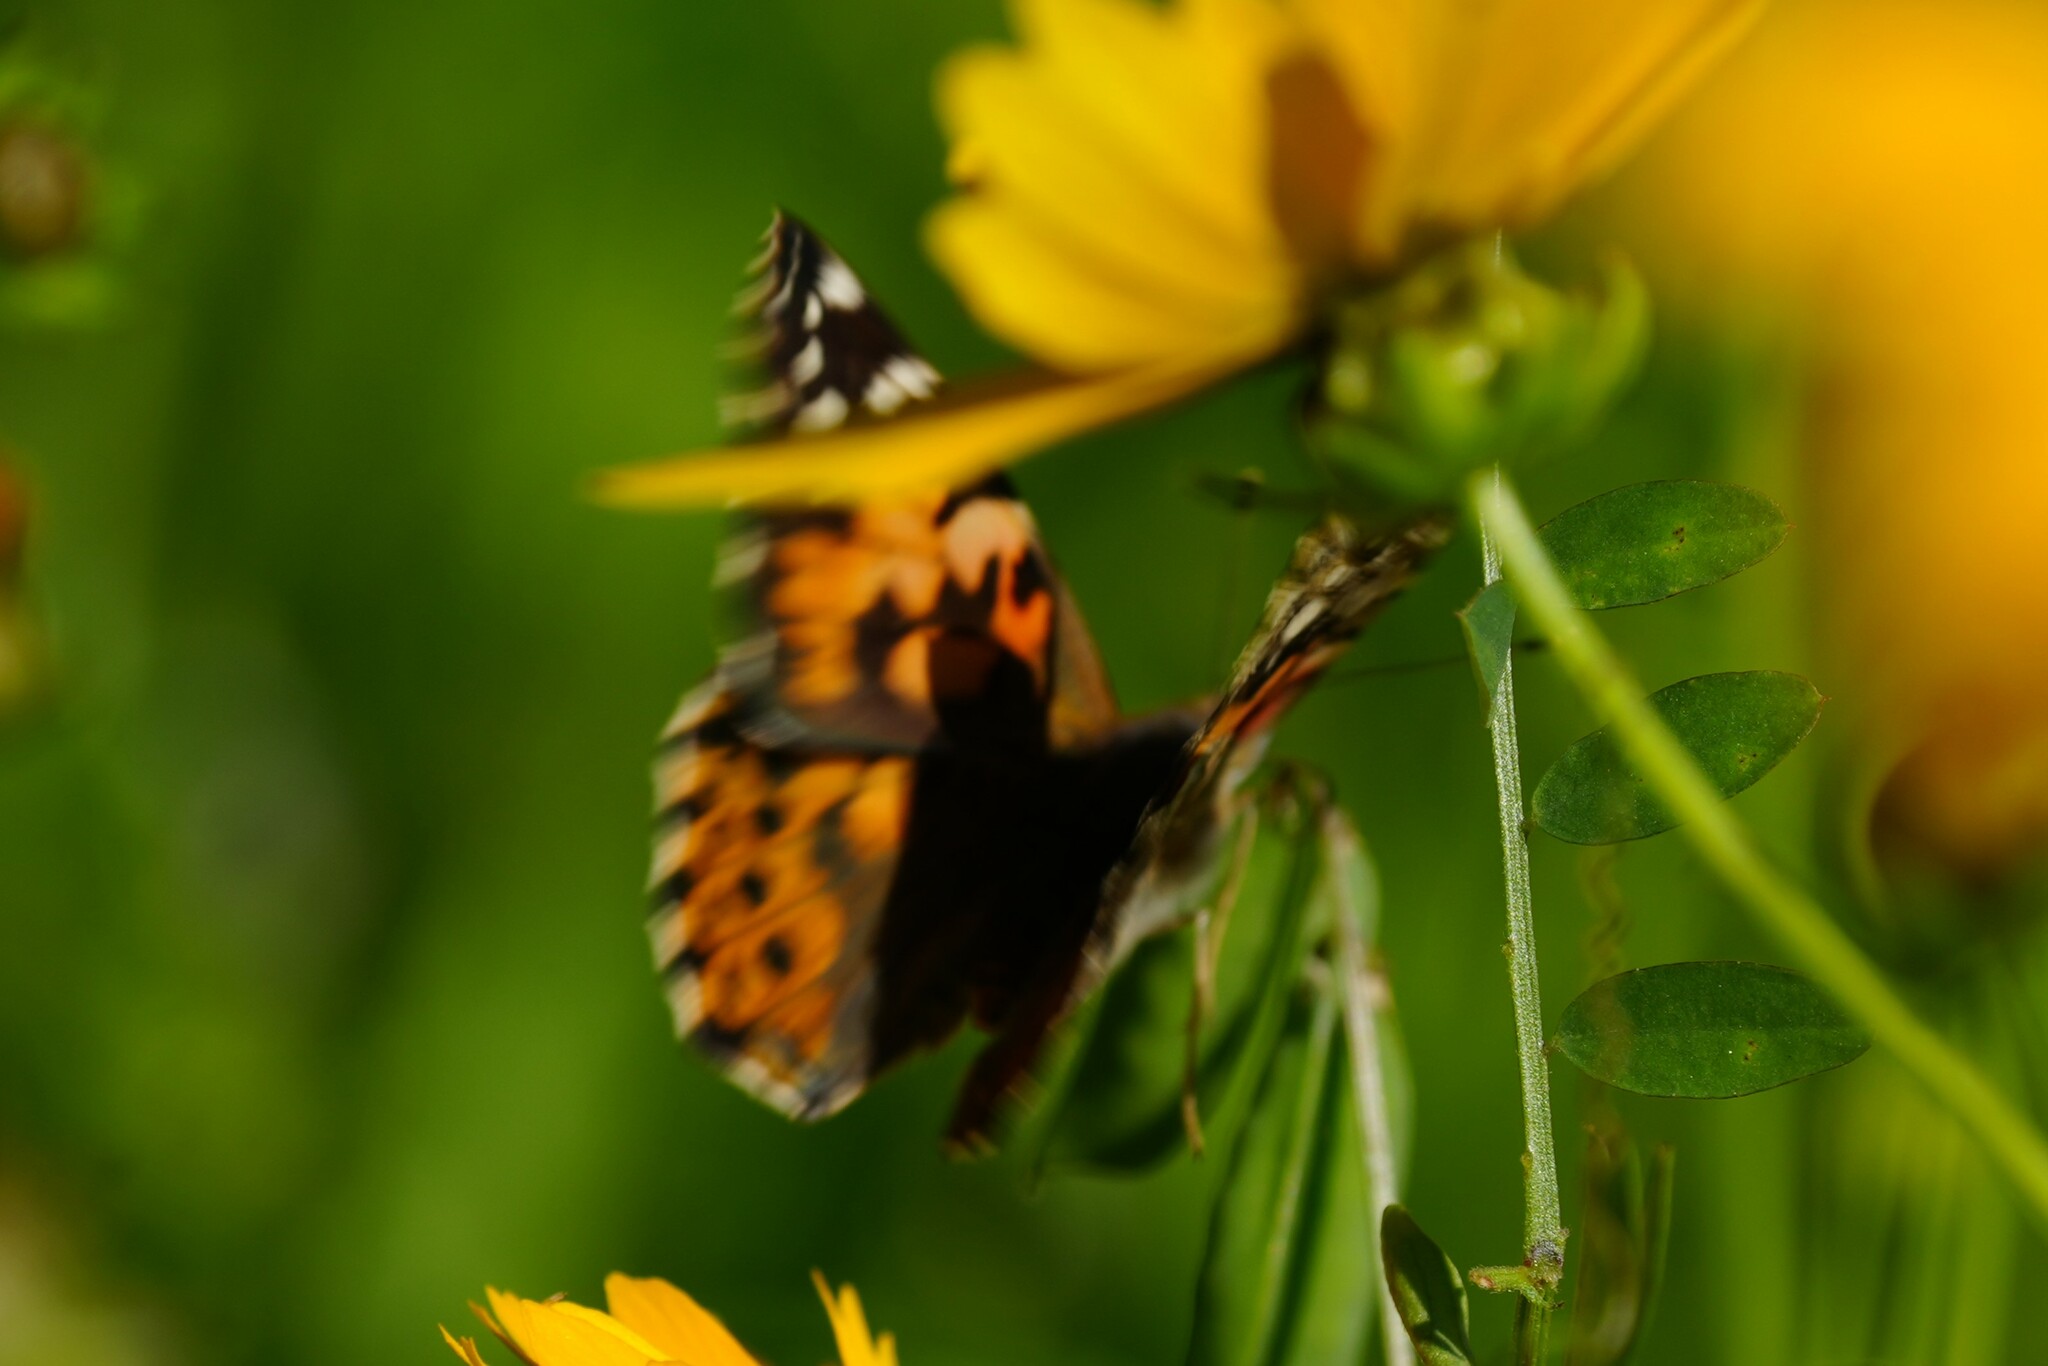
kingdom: Animalia
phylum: Arthropoda
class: Insecta
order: Lepidoptera
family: Nymphalidae
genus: Vanessa
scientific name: Vanessa cardui
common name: Painted lady
